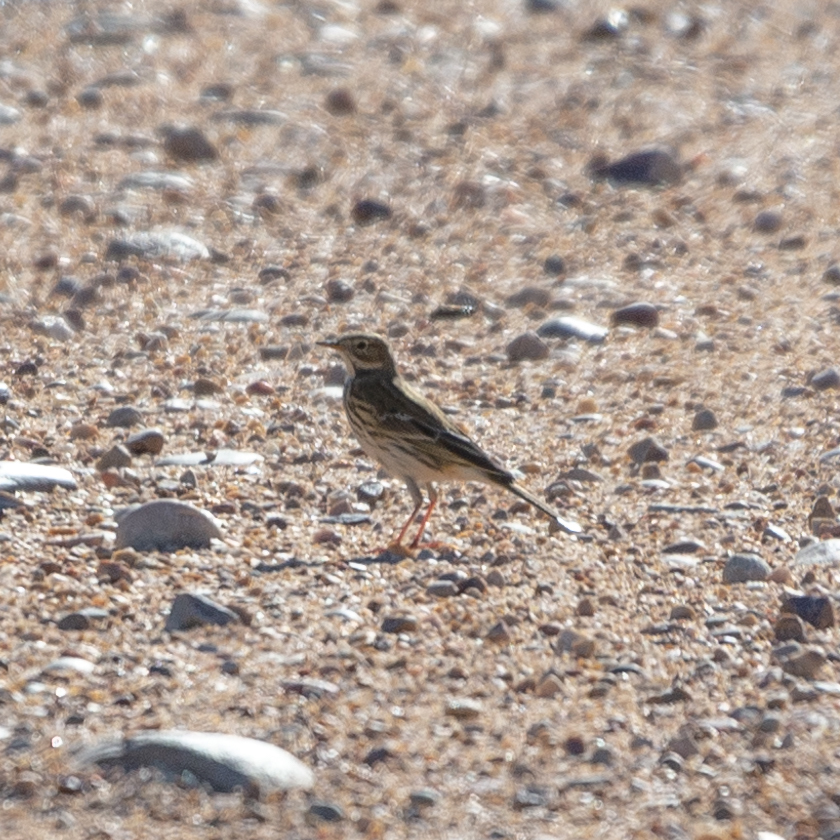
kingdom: Animalia
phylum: Chordata
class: Aves
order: Passeriformes
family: Motacillidae
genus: Anthus
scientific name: Anthus pratensis
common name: Meadow pipit
